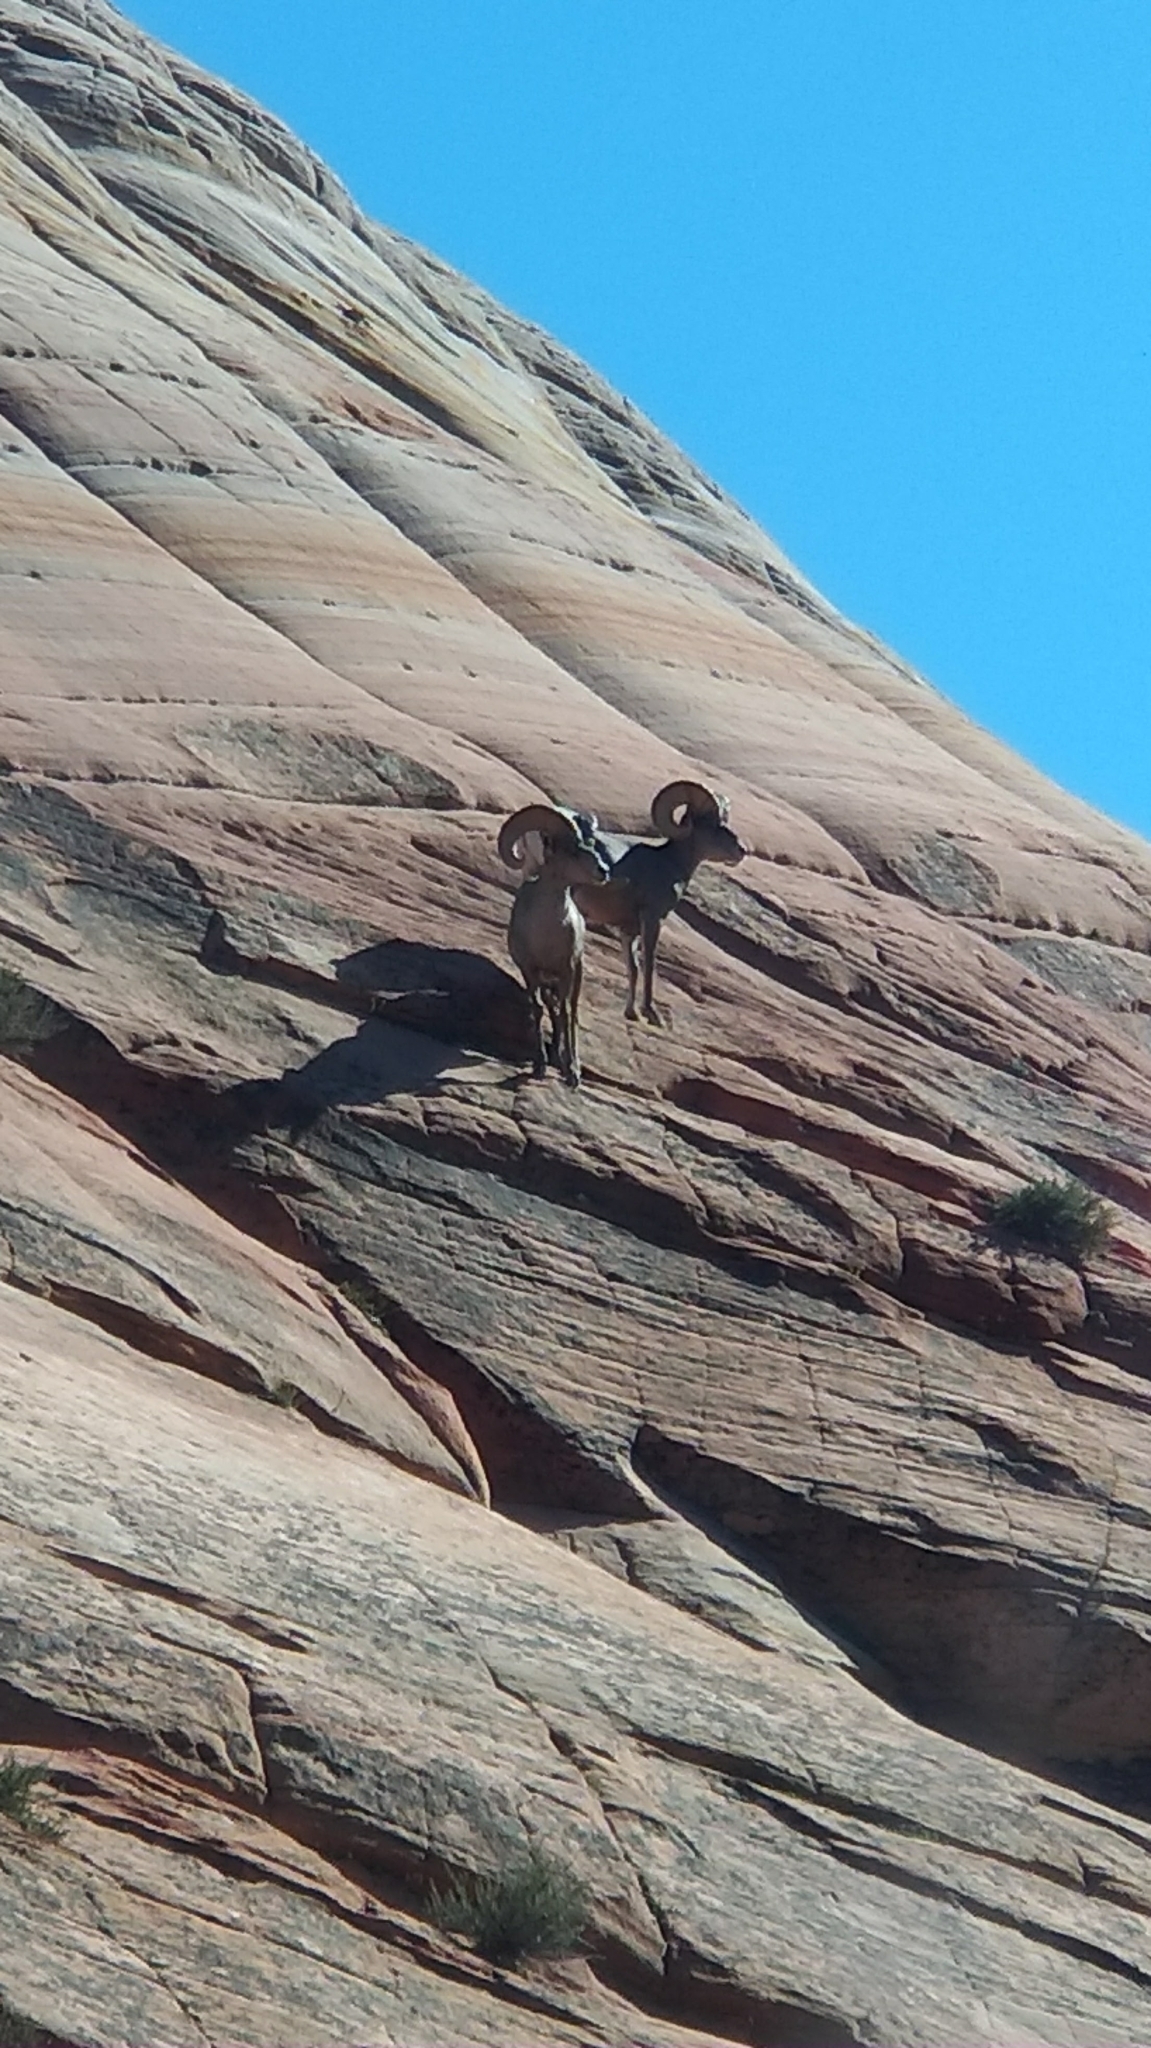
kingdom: Animalia
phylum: Chordata
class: Mammalia
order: Artiodactyla
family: Bovidae
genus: Ovis
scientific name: Ovis canadensis
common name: Bighorn sheep
